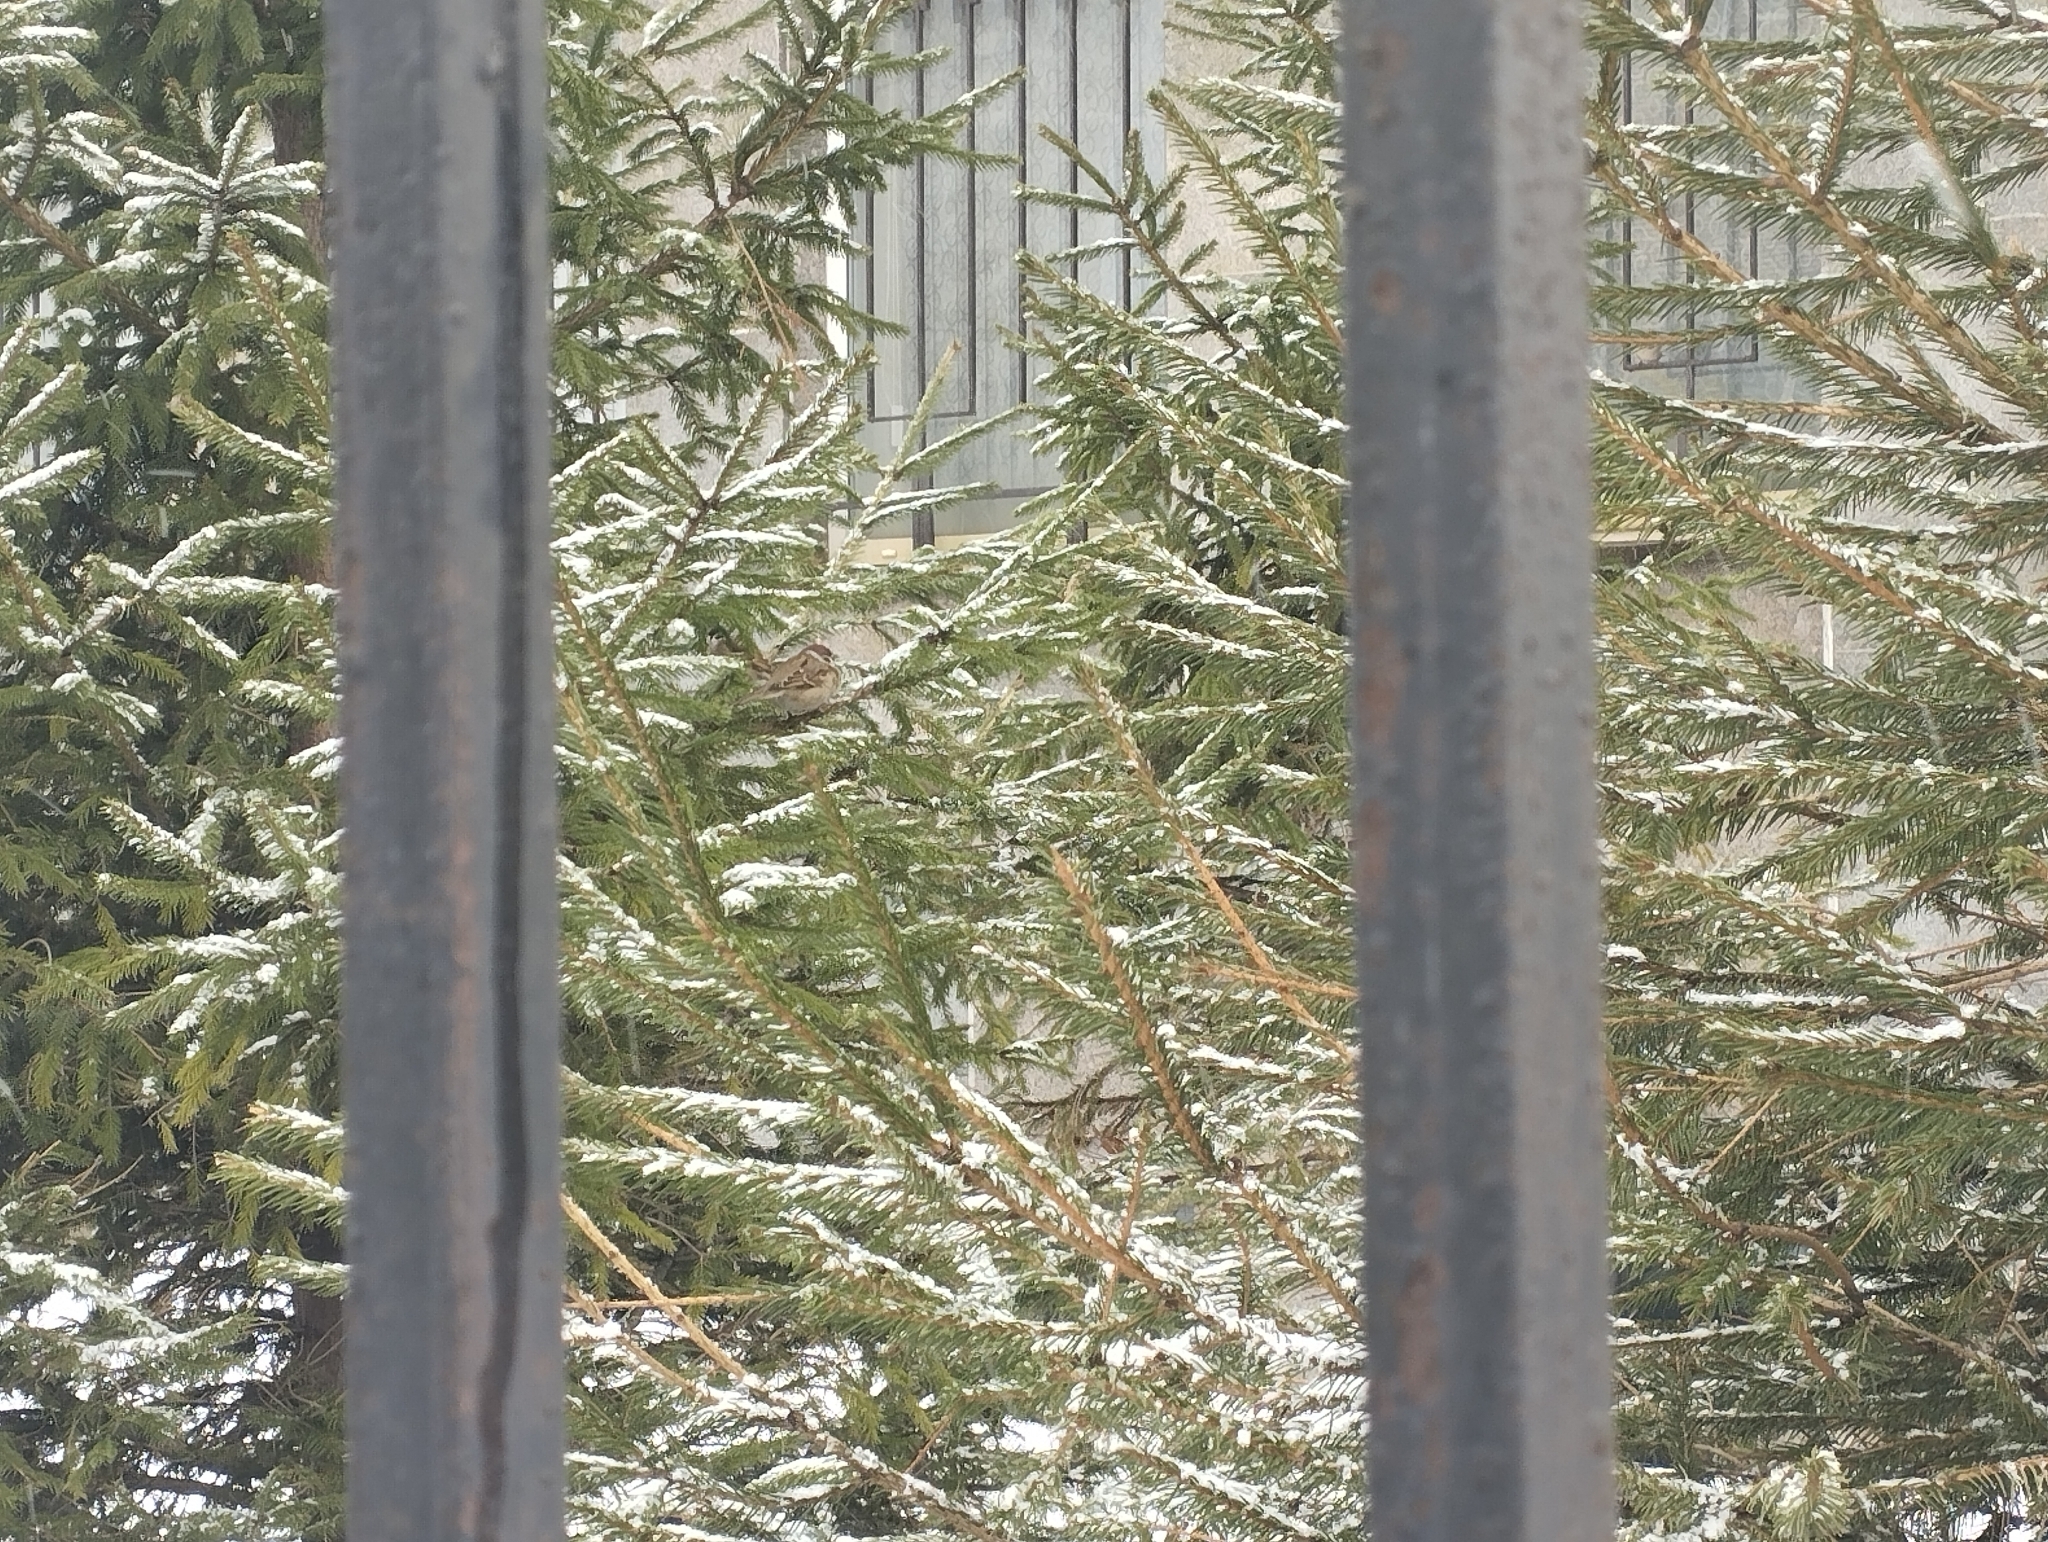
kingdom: Animalia
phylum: Chordata
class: Aves
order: Passeriformes
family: Passeridae
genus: Passer
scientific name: Passer montanus
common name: Eurasian tree sparrow
